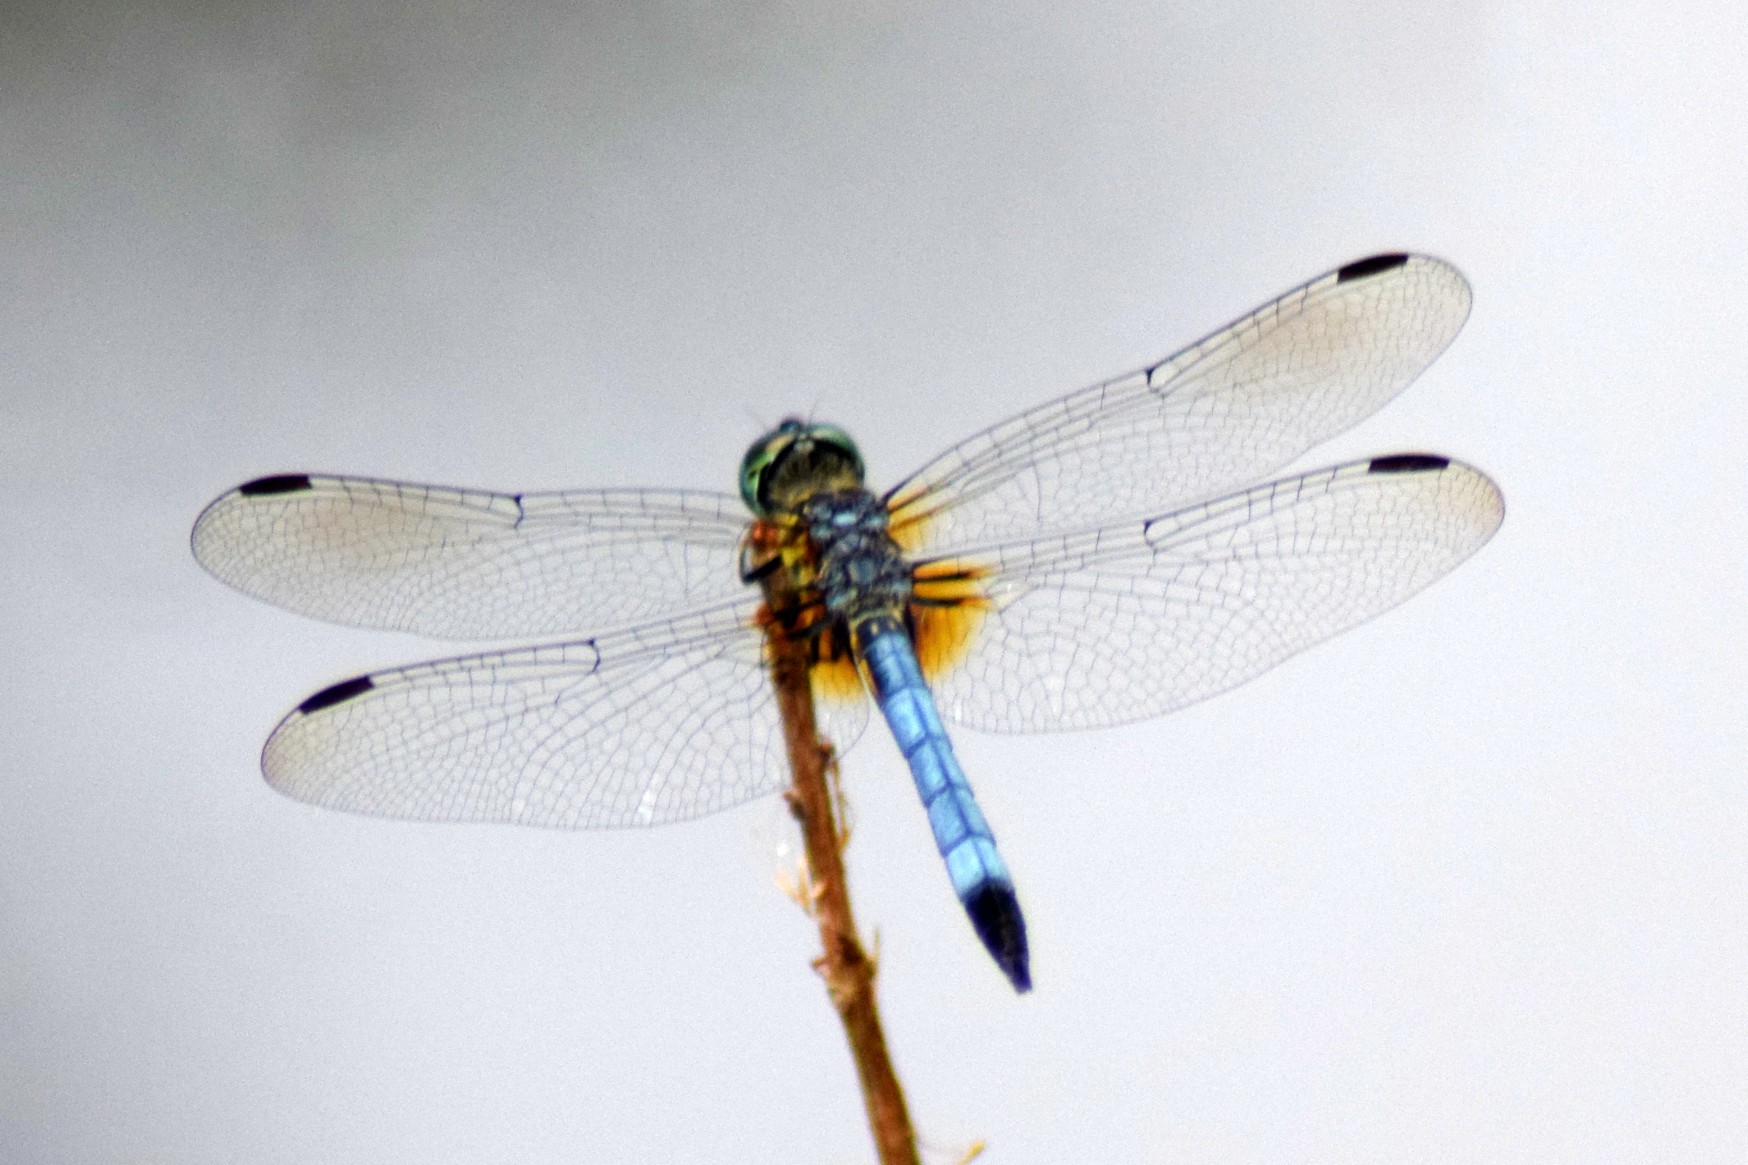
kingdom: Animalia
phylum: Arthropoda
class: Insecta
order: Odonata
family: Libellulidae
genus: Pachydiplax
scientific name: Pachydiplax longipennis
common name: Blue dasher
